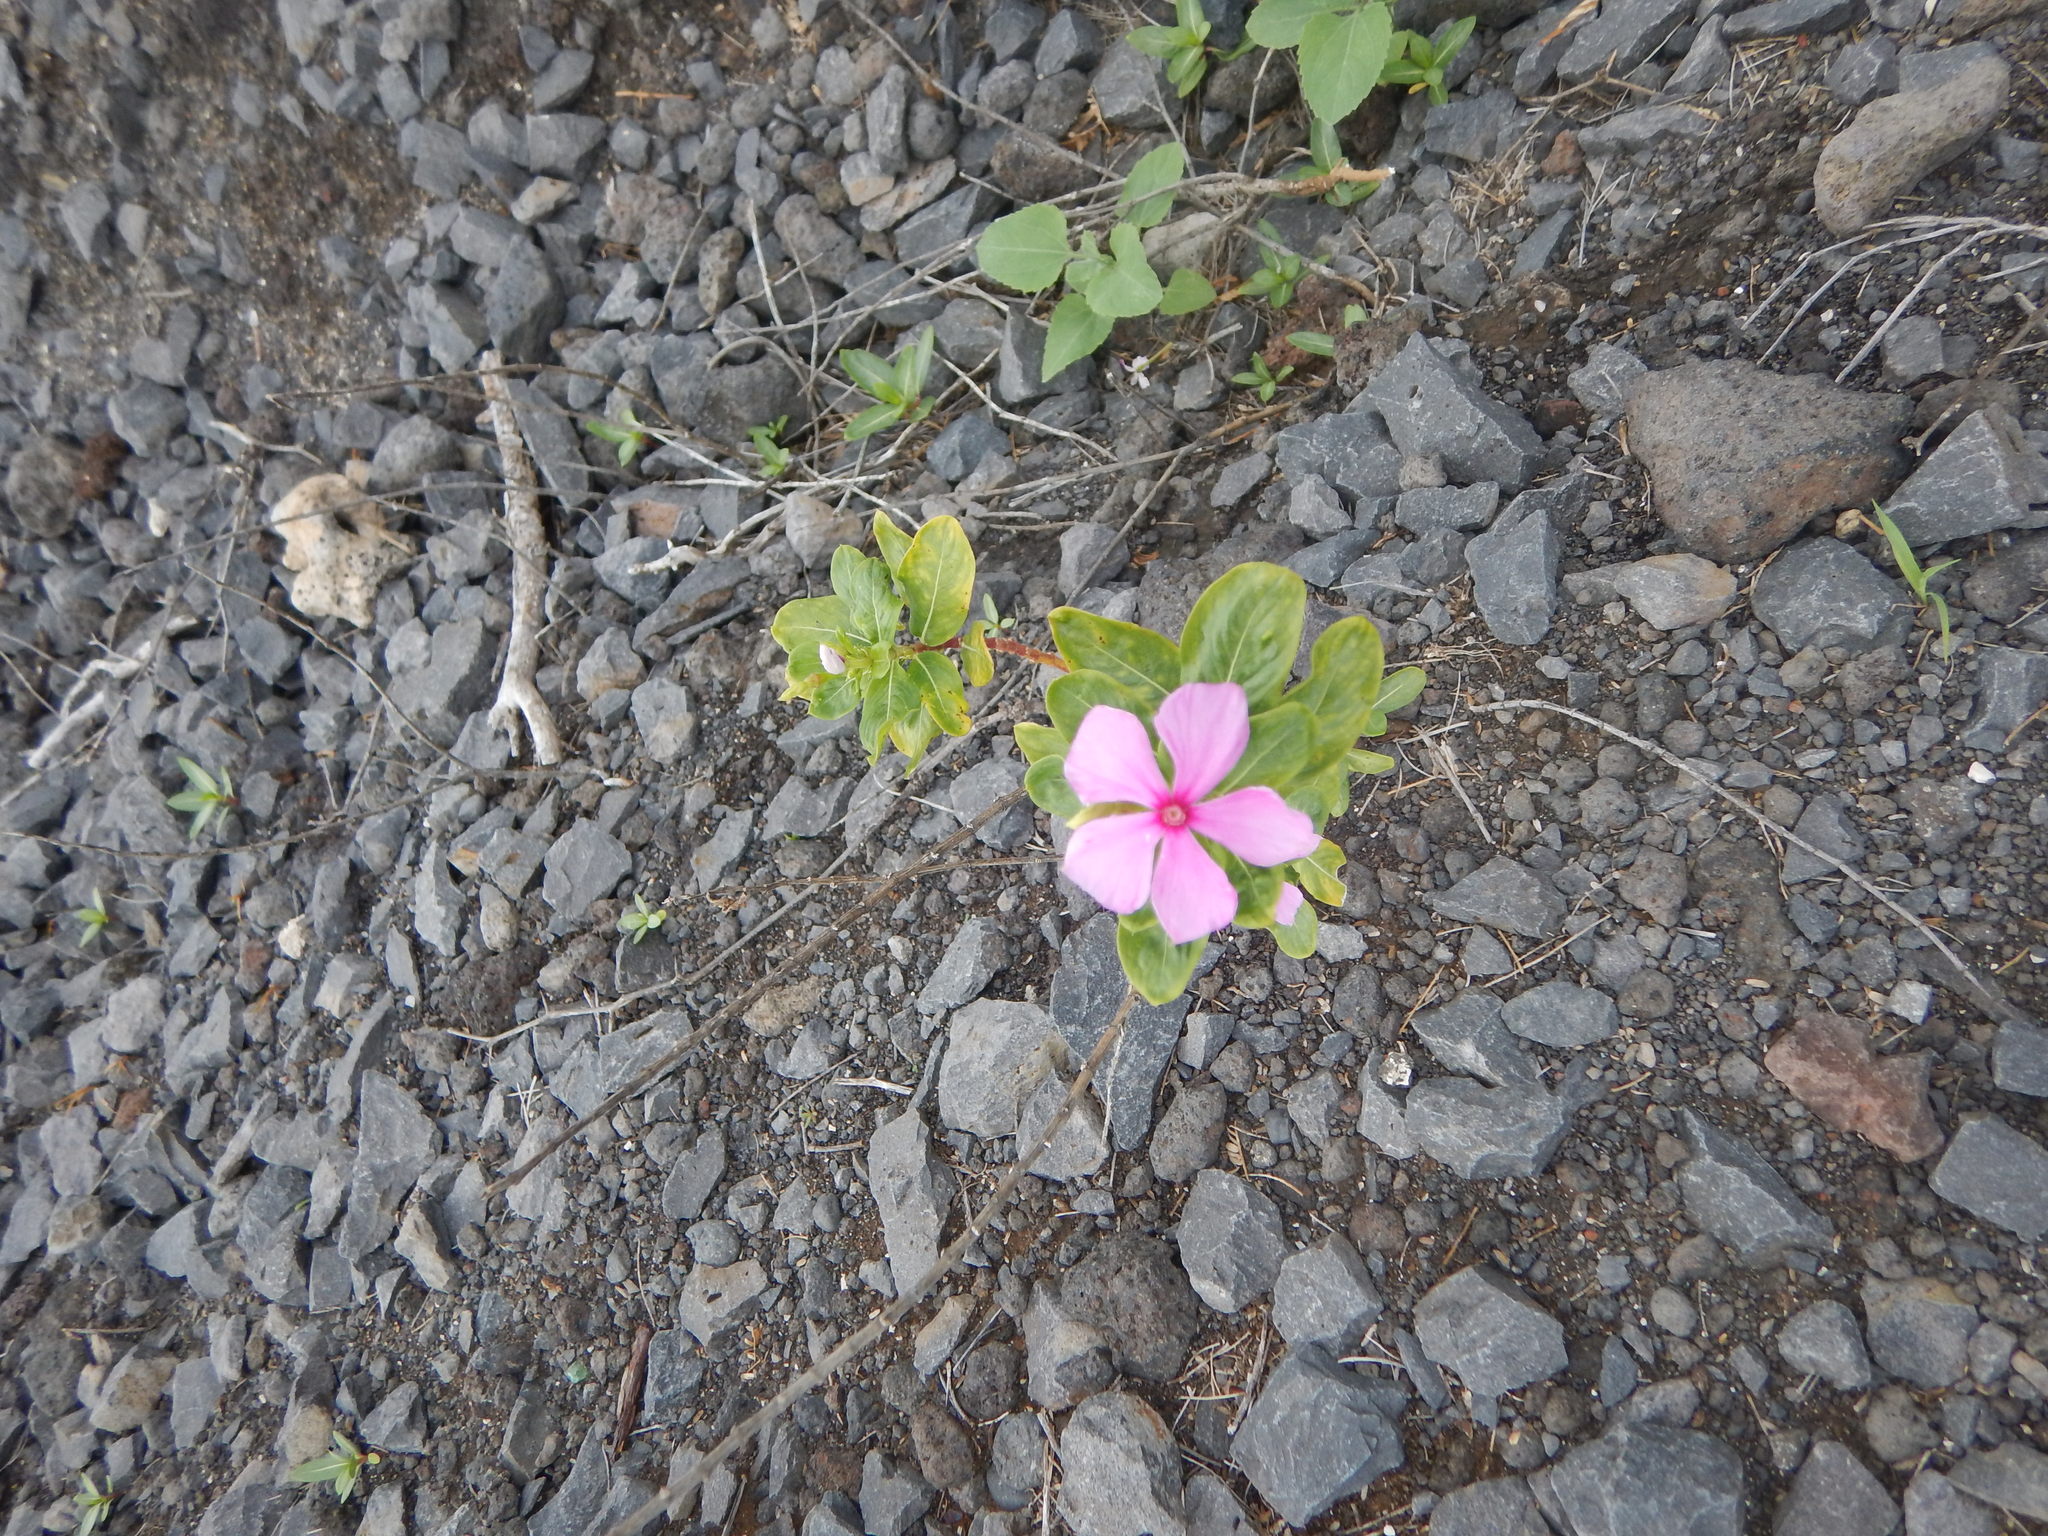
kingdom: Plantae
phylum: Tracheophyta
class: Magnoliopsida
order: Gentianales
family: Apocynaceae
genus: Catharanthus
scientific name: Catharanthus roseus
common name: Madagascar periwinkle
